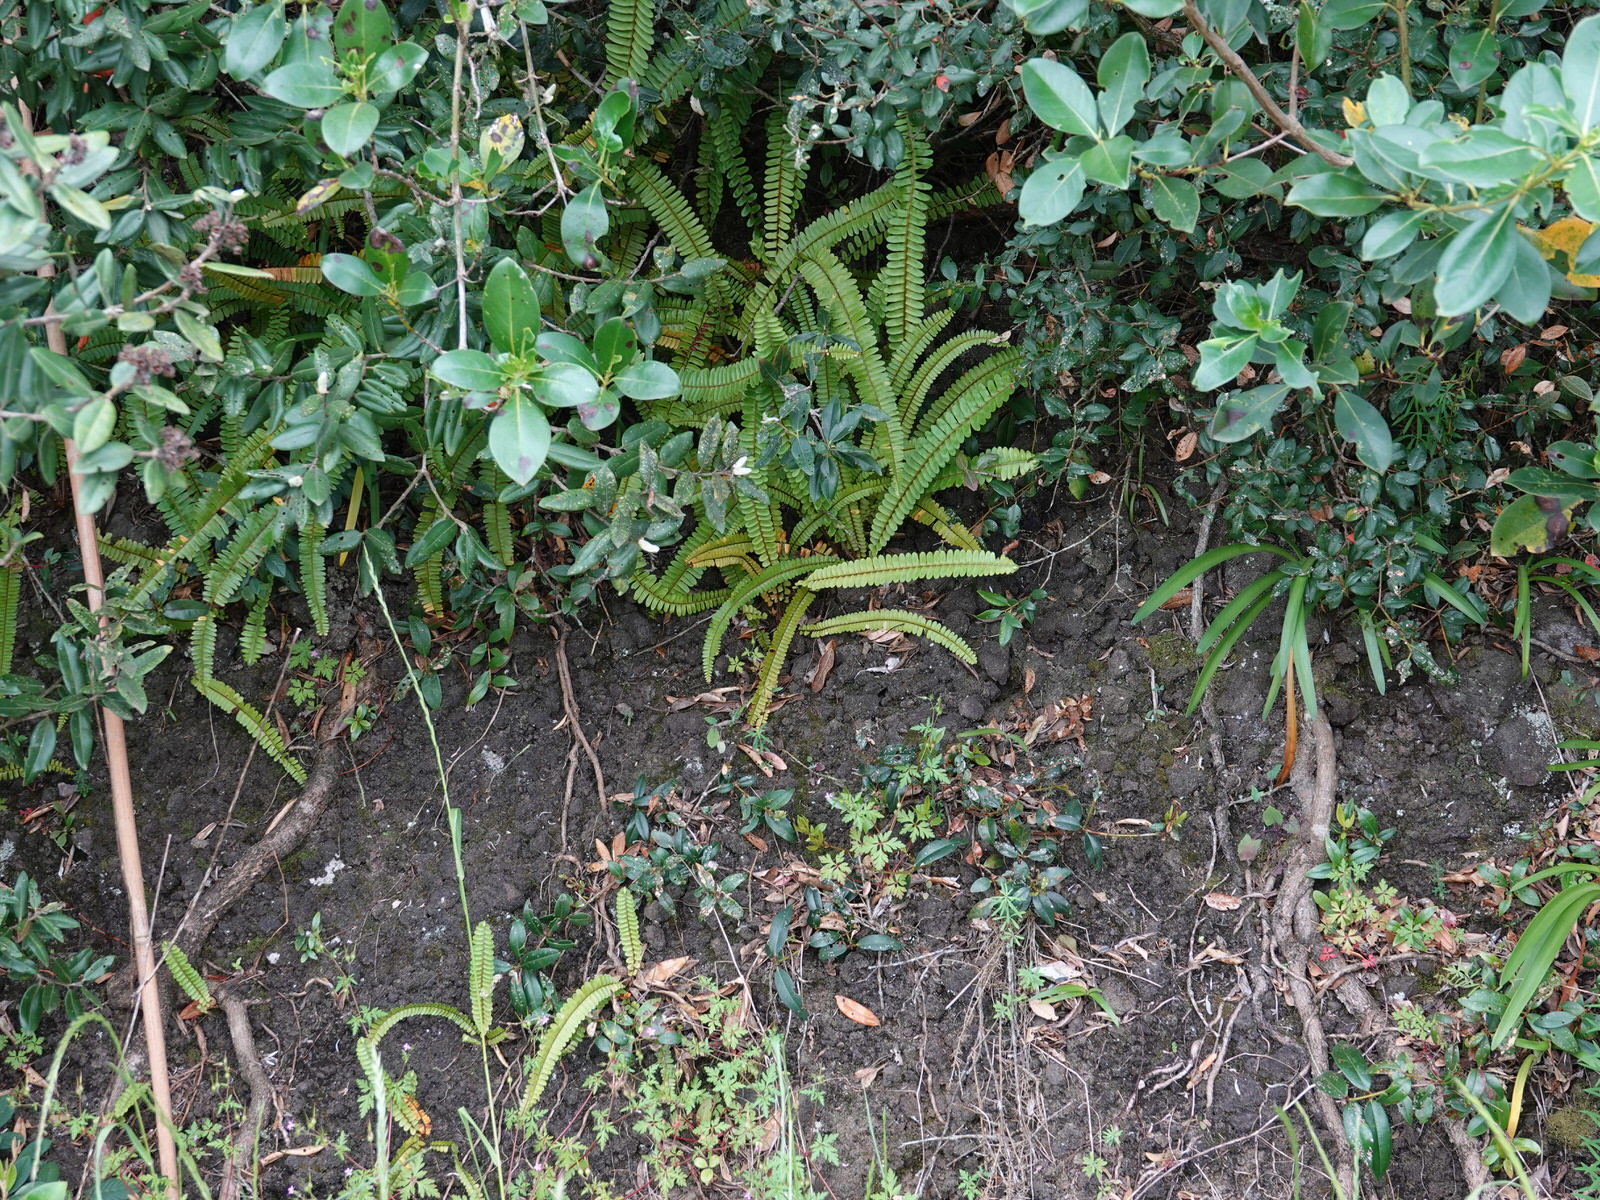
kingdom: Plantae
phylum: Tracheophyta
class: Polypodiopsida
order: Polypodiales
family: Nephrolepidaceae
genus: Nephrolepis
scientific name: Nephrolepis cordifolia
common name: Narrow swordfern
